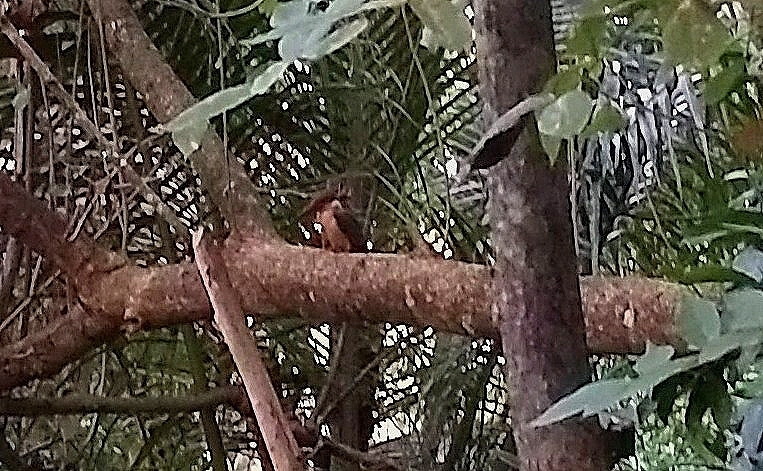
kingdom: Animalia
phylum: Chordata
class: Aves
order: Coraciiformes
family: Alcedinidae
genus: Pelargopsis
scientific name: Pelargopsis capensis
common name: Stork-billed kingfisher
